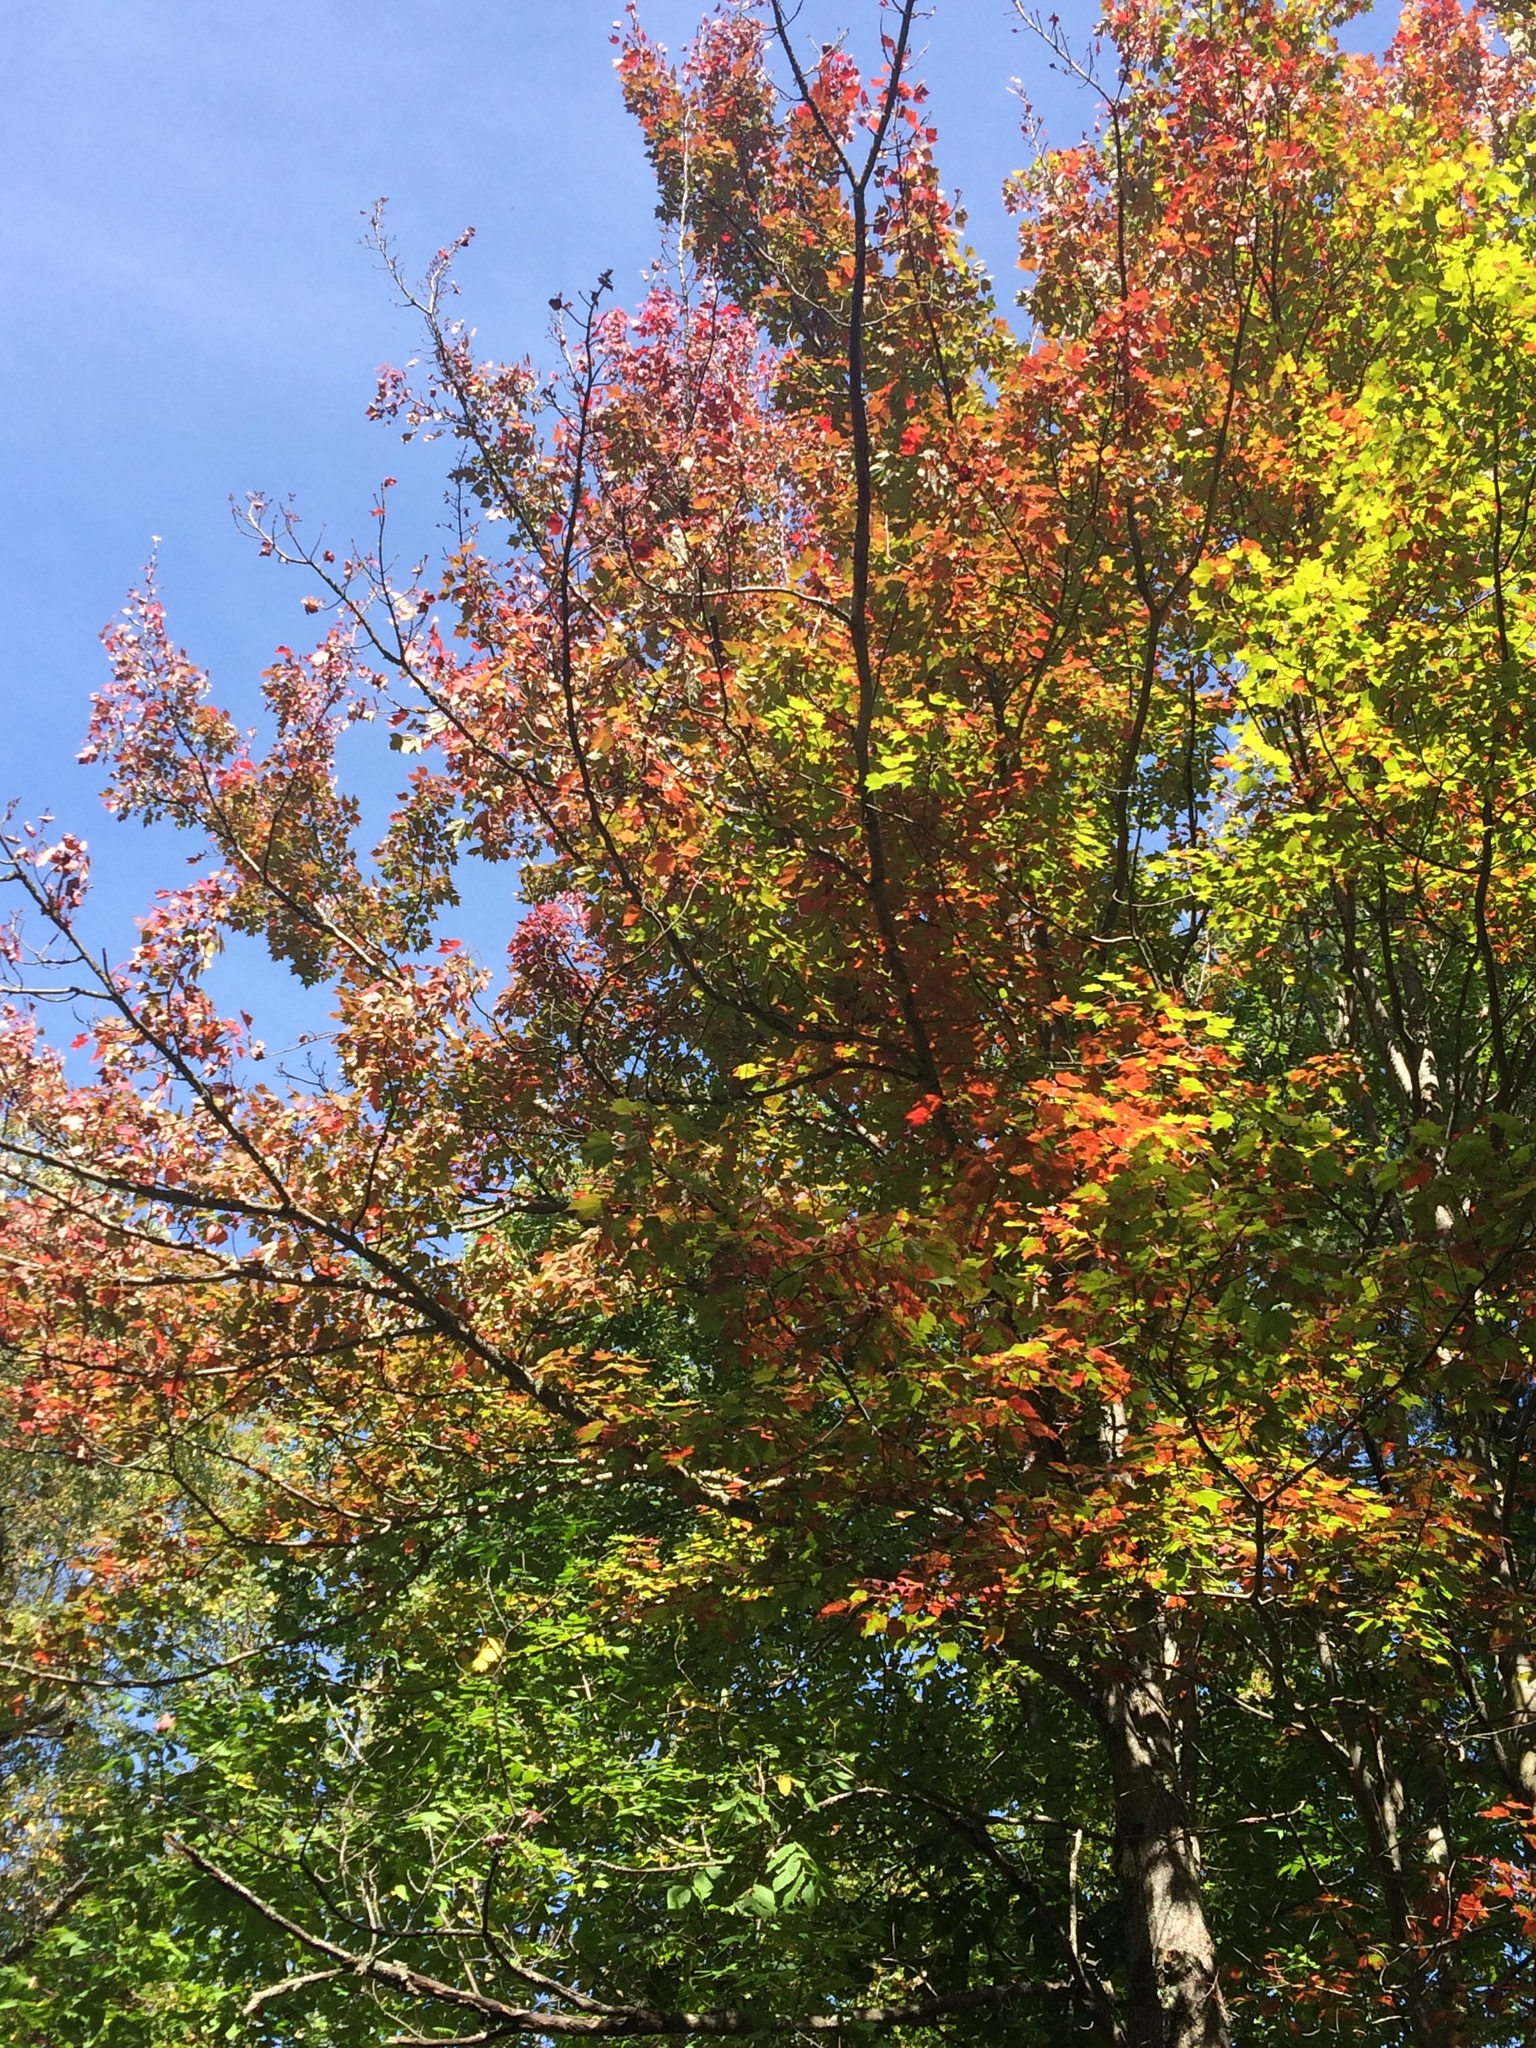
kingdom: Plantae
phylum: Tracheophyta
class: Magnoliopsida
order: Sapindales
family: Sapindaceae
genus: Acer
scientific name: Acer rubrum
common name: Red maple
